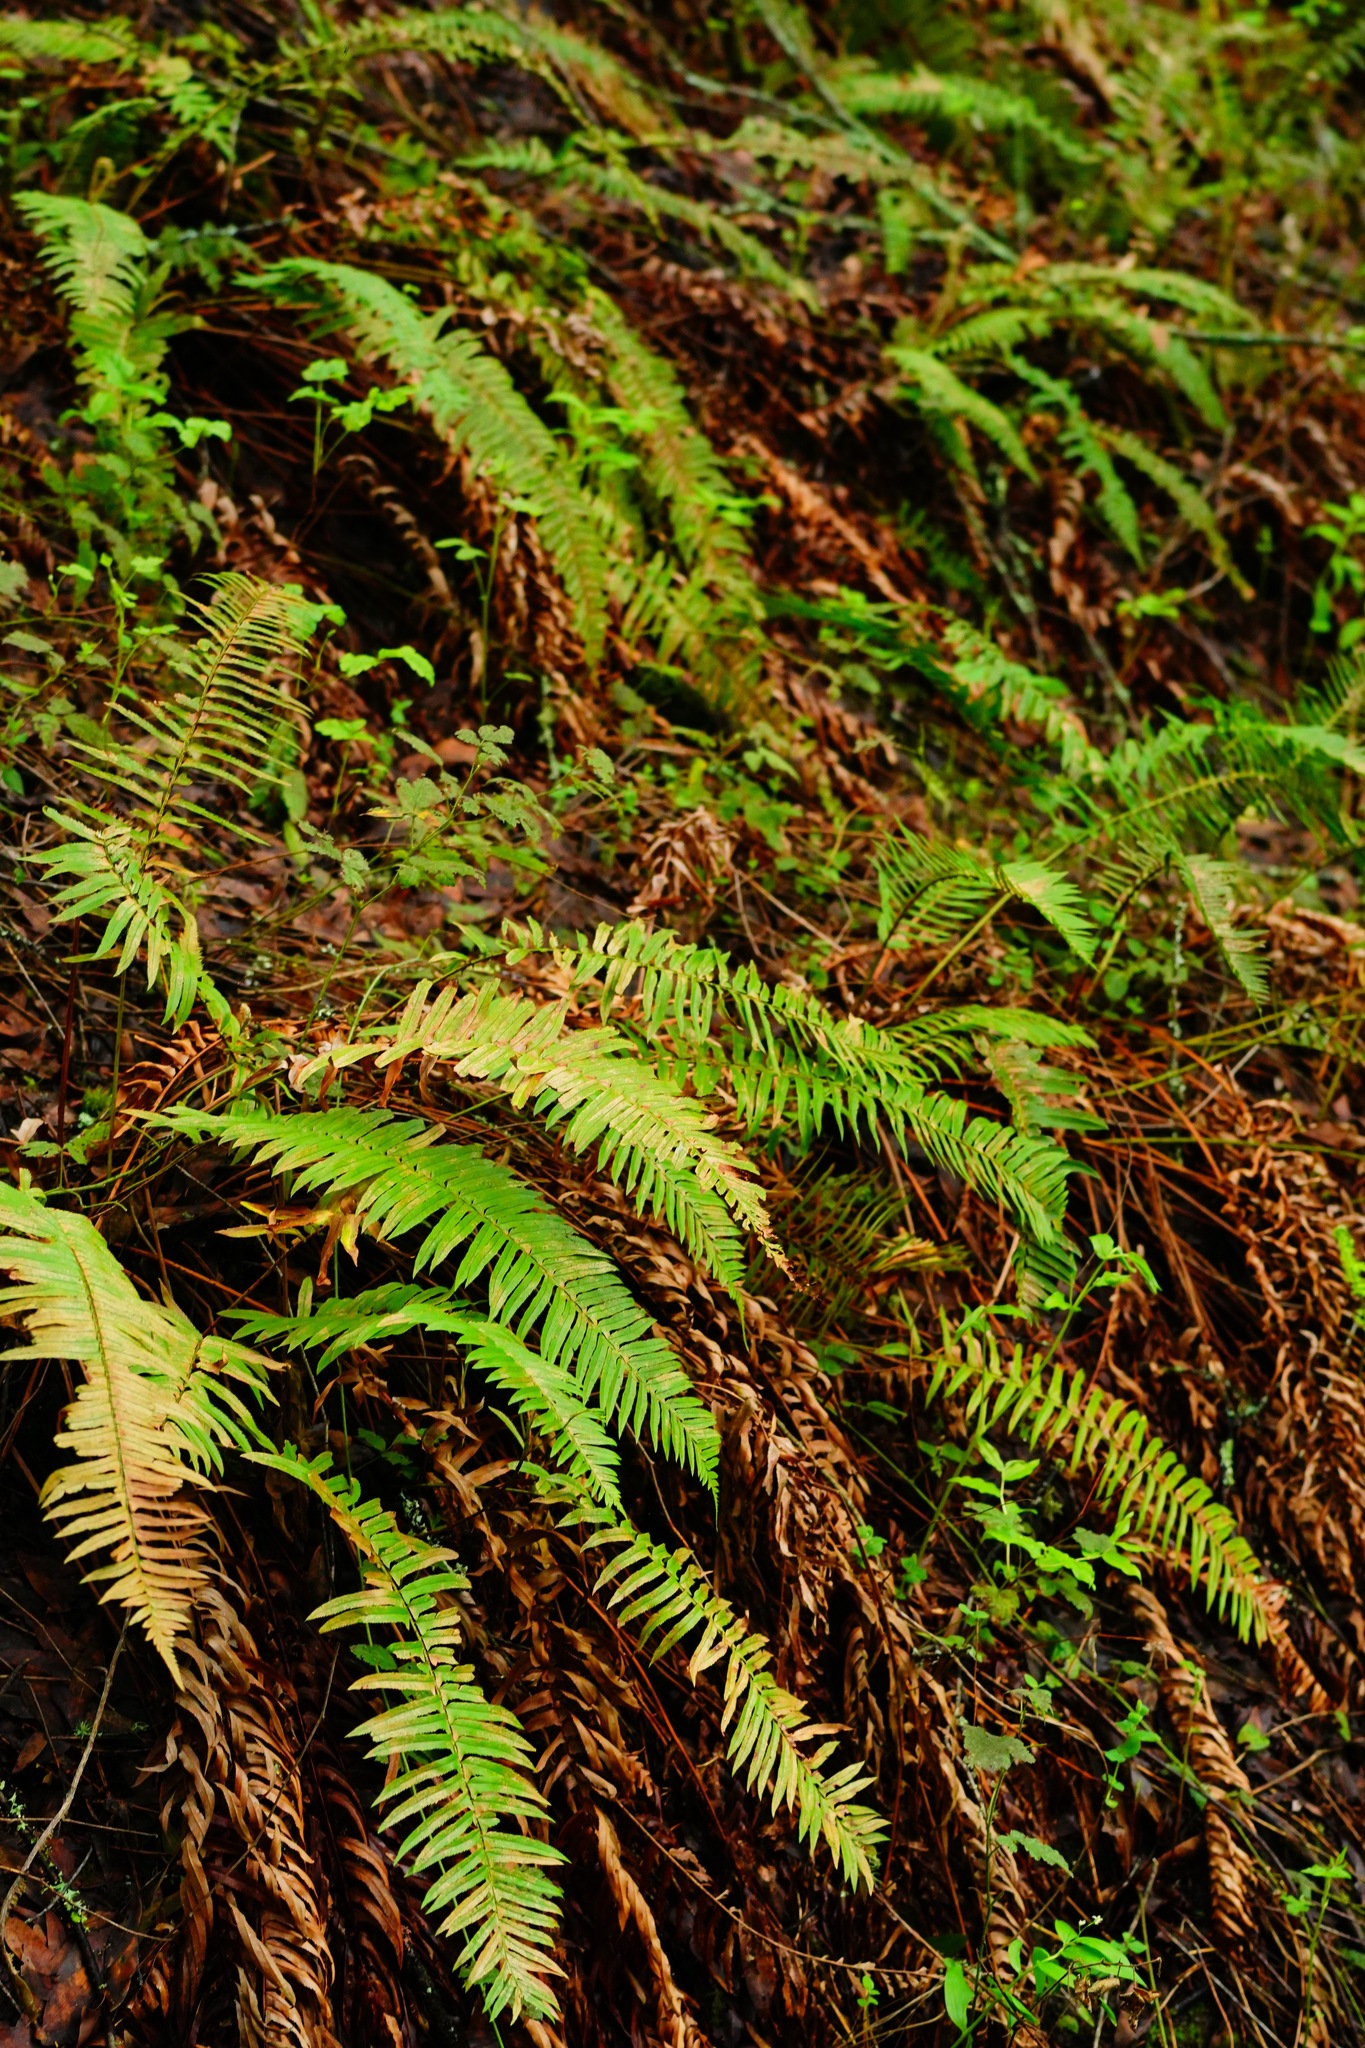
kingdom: Plantae
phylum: Tracheophyta
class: Polypodiopsida
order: Polypodiales
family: Dryopteridaceae
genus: Polystichum
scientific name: Polystichum munitum
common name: Western sword-fern
